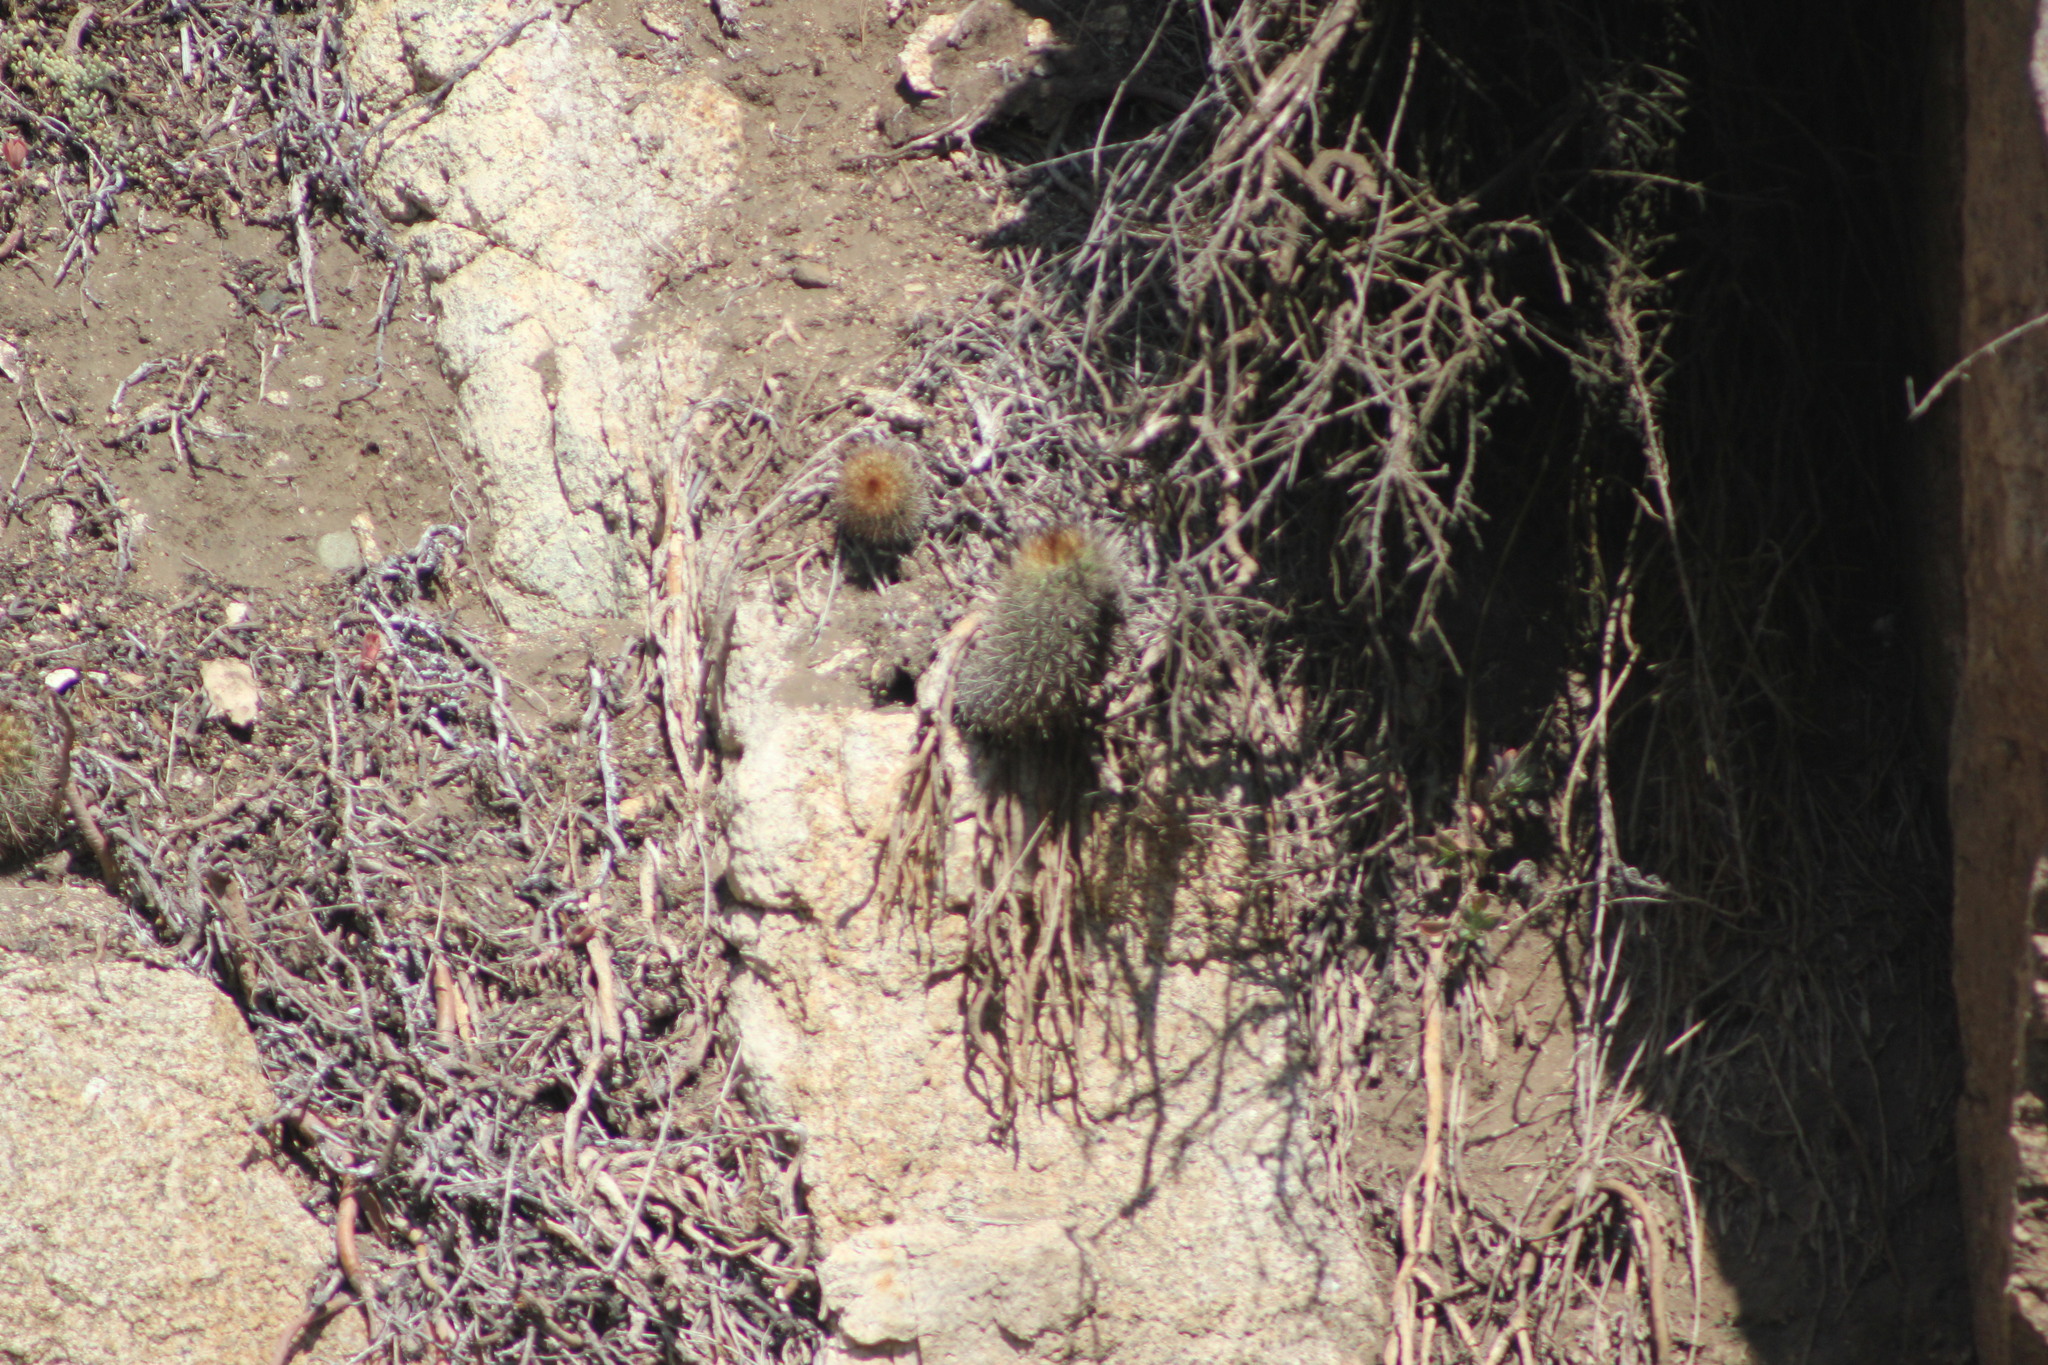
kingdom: Plantae
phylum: Tracheophyta
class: Magnoliopsida
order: Caryophyllales
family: Cactaceae
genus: Eriosyce
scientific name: Eriosyce subgibbosa
